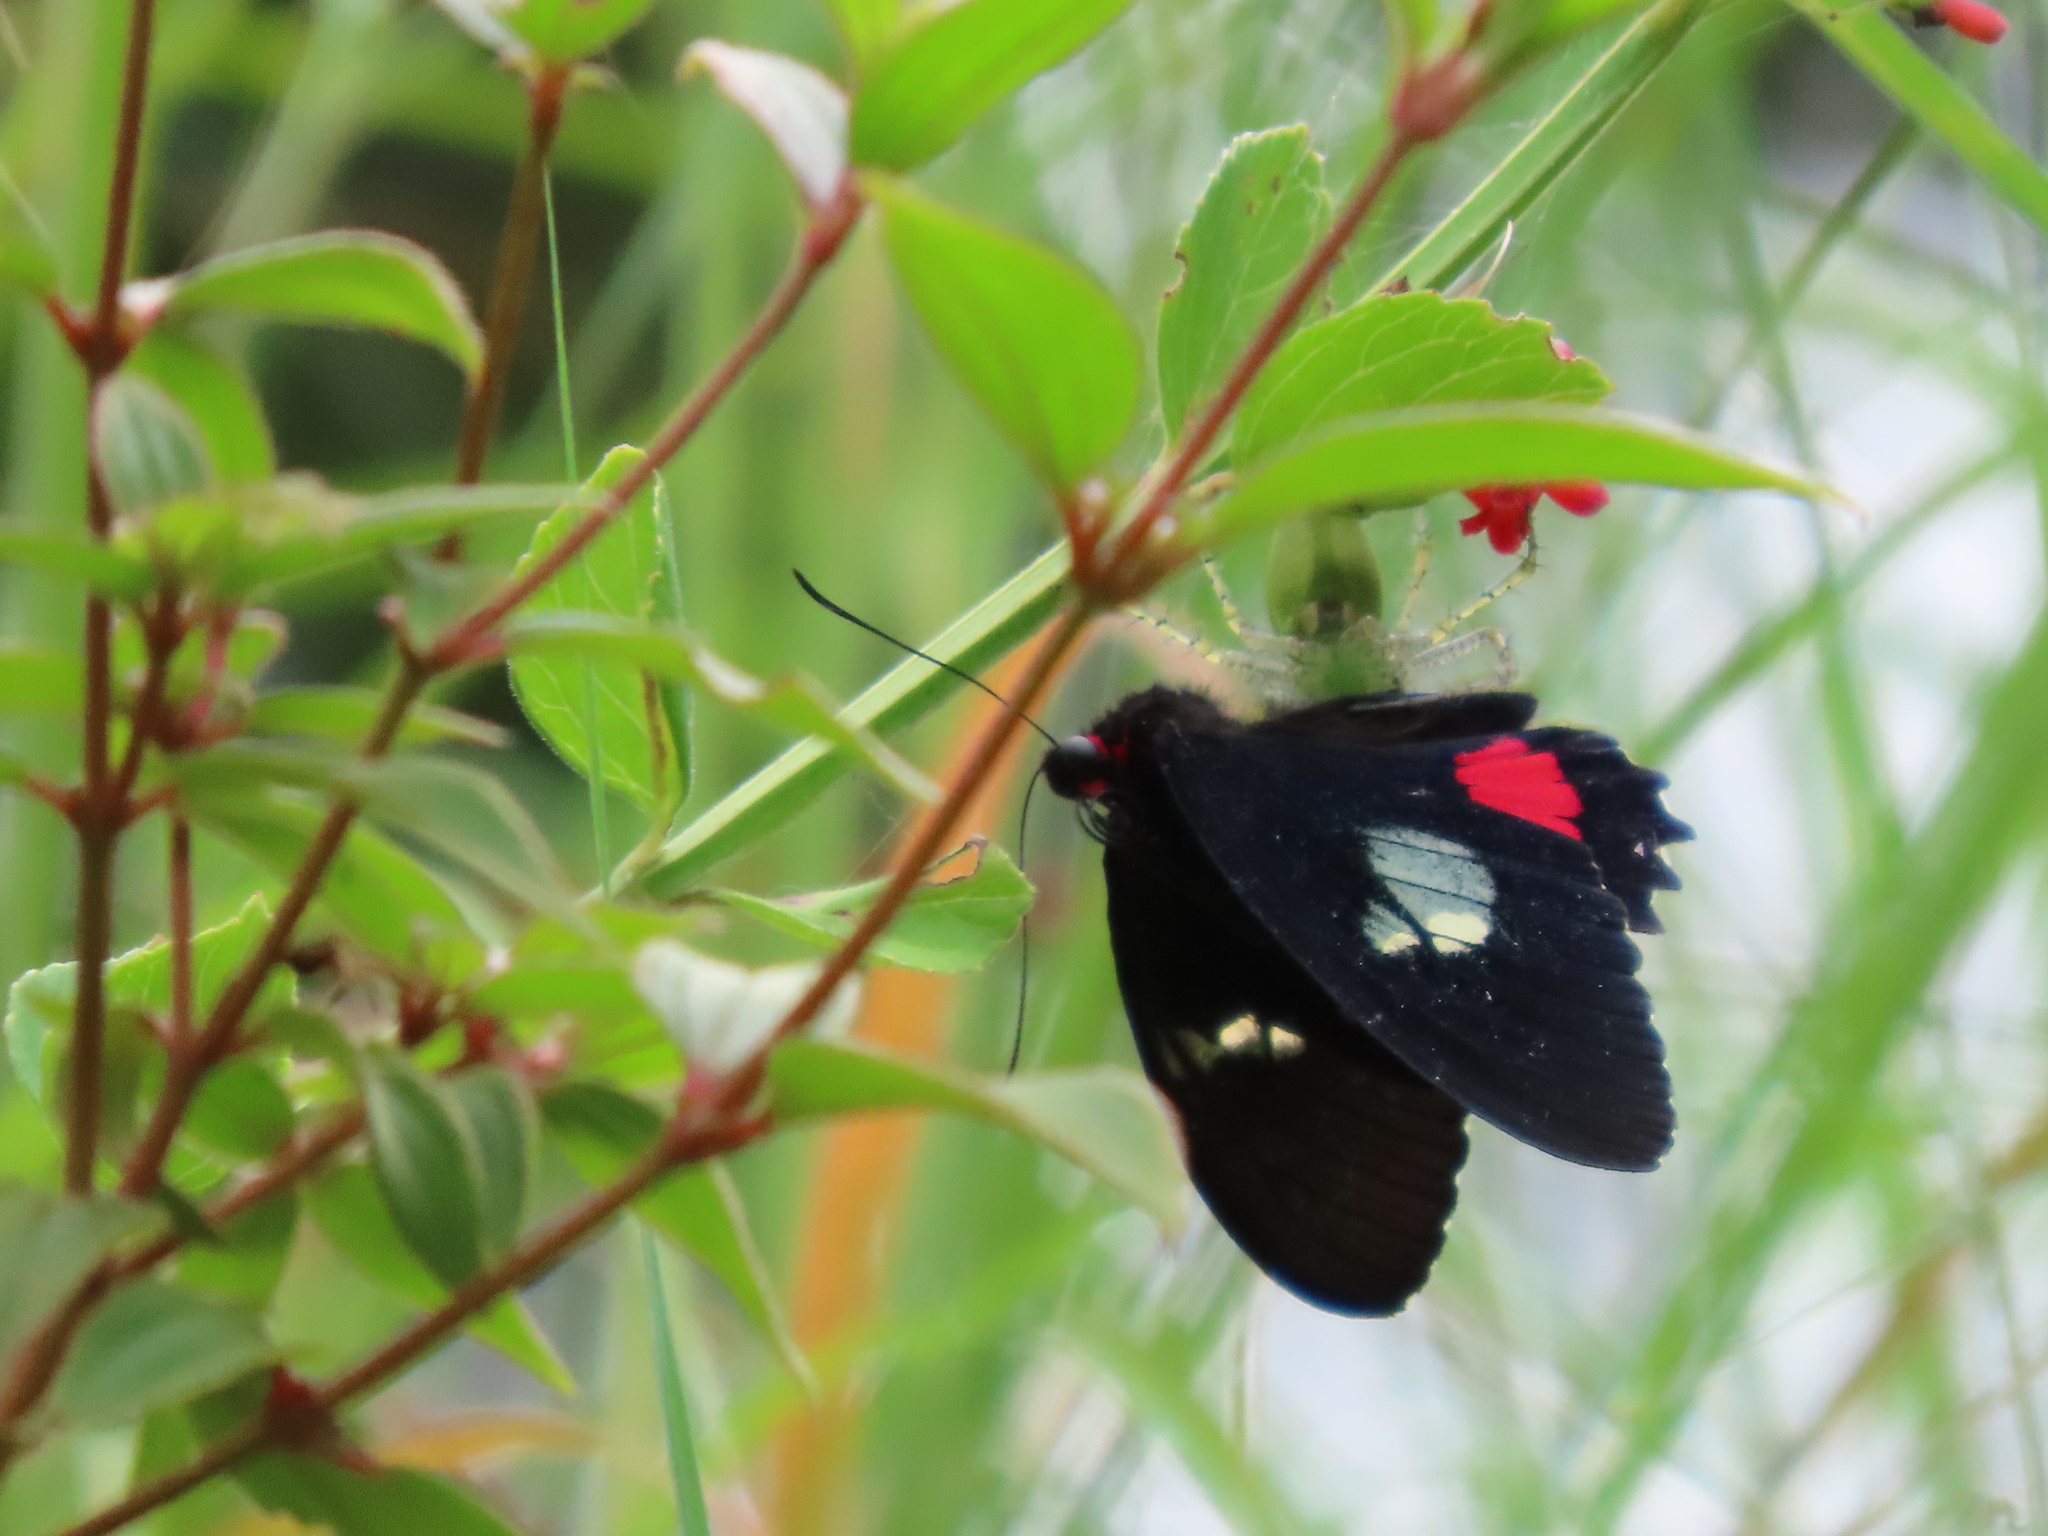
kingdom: Animalia
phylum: Arthropoda
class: Insecta
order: Lepidoptera
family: Papilionidae
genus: Parides
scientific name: Parides iphidamas
